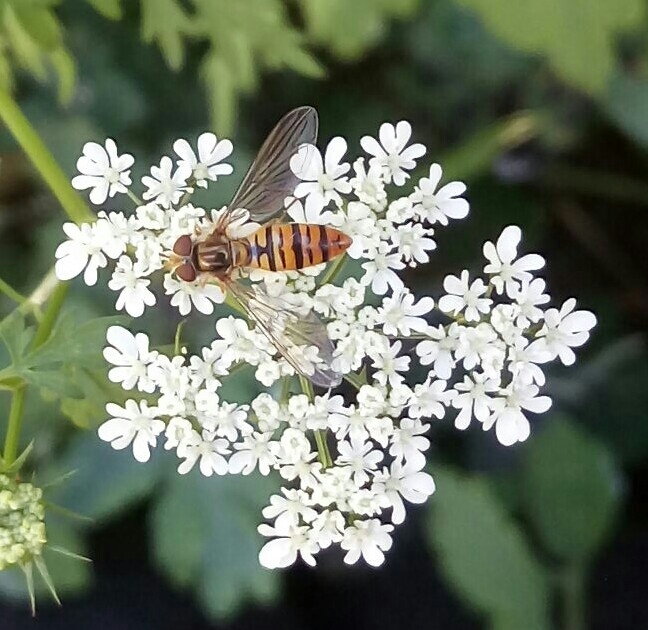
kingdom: Animalia
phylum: Arthropoda
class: Insecta
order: Diptera
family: Syrphidae
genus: Episyrphus
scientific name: Episyrphus balteatus
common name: Marmalade hoverfly
